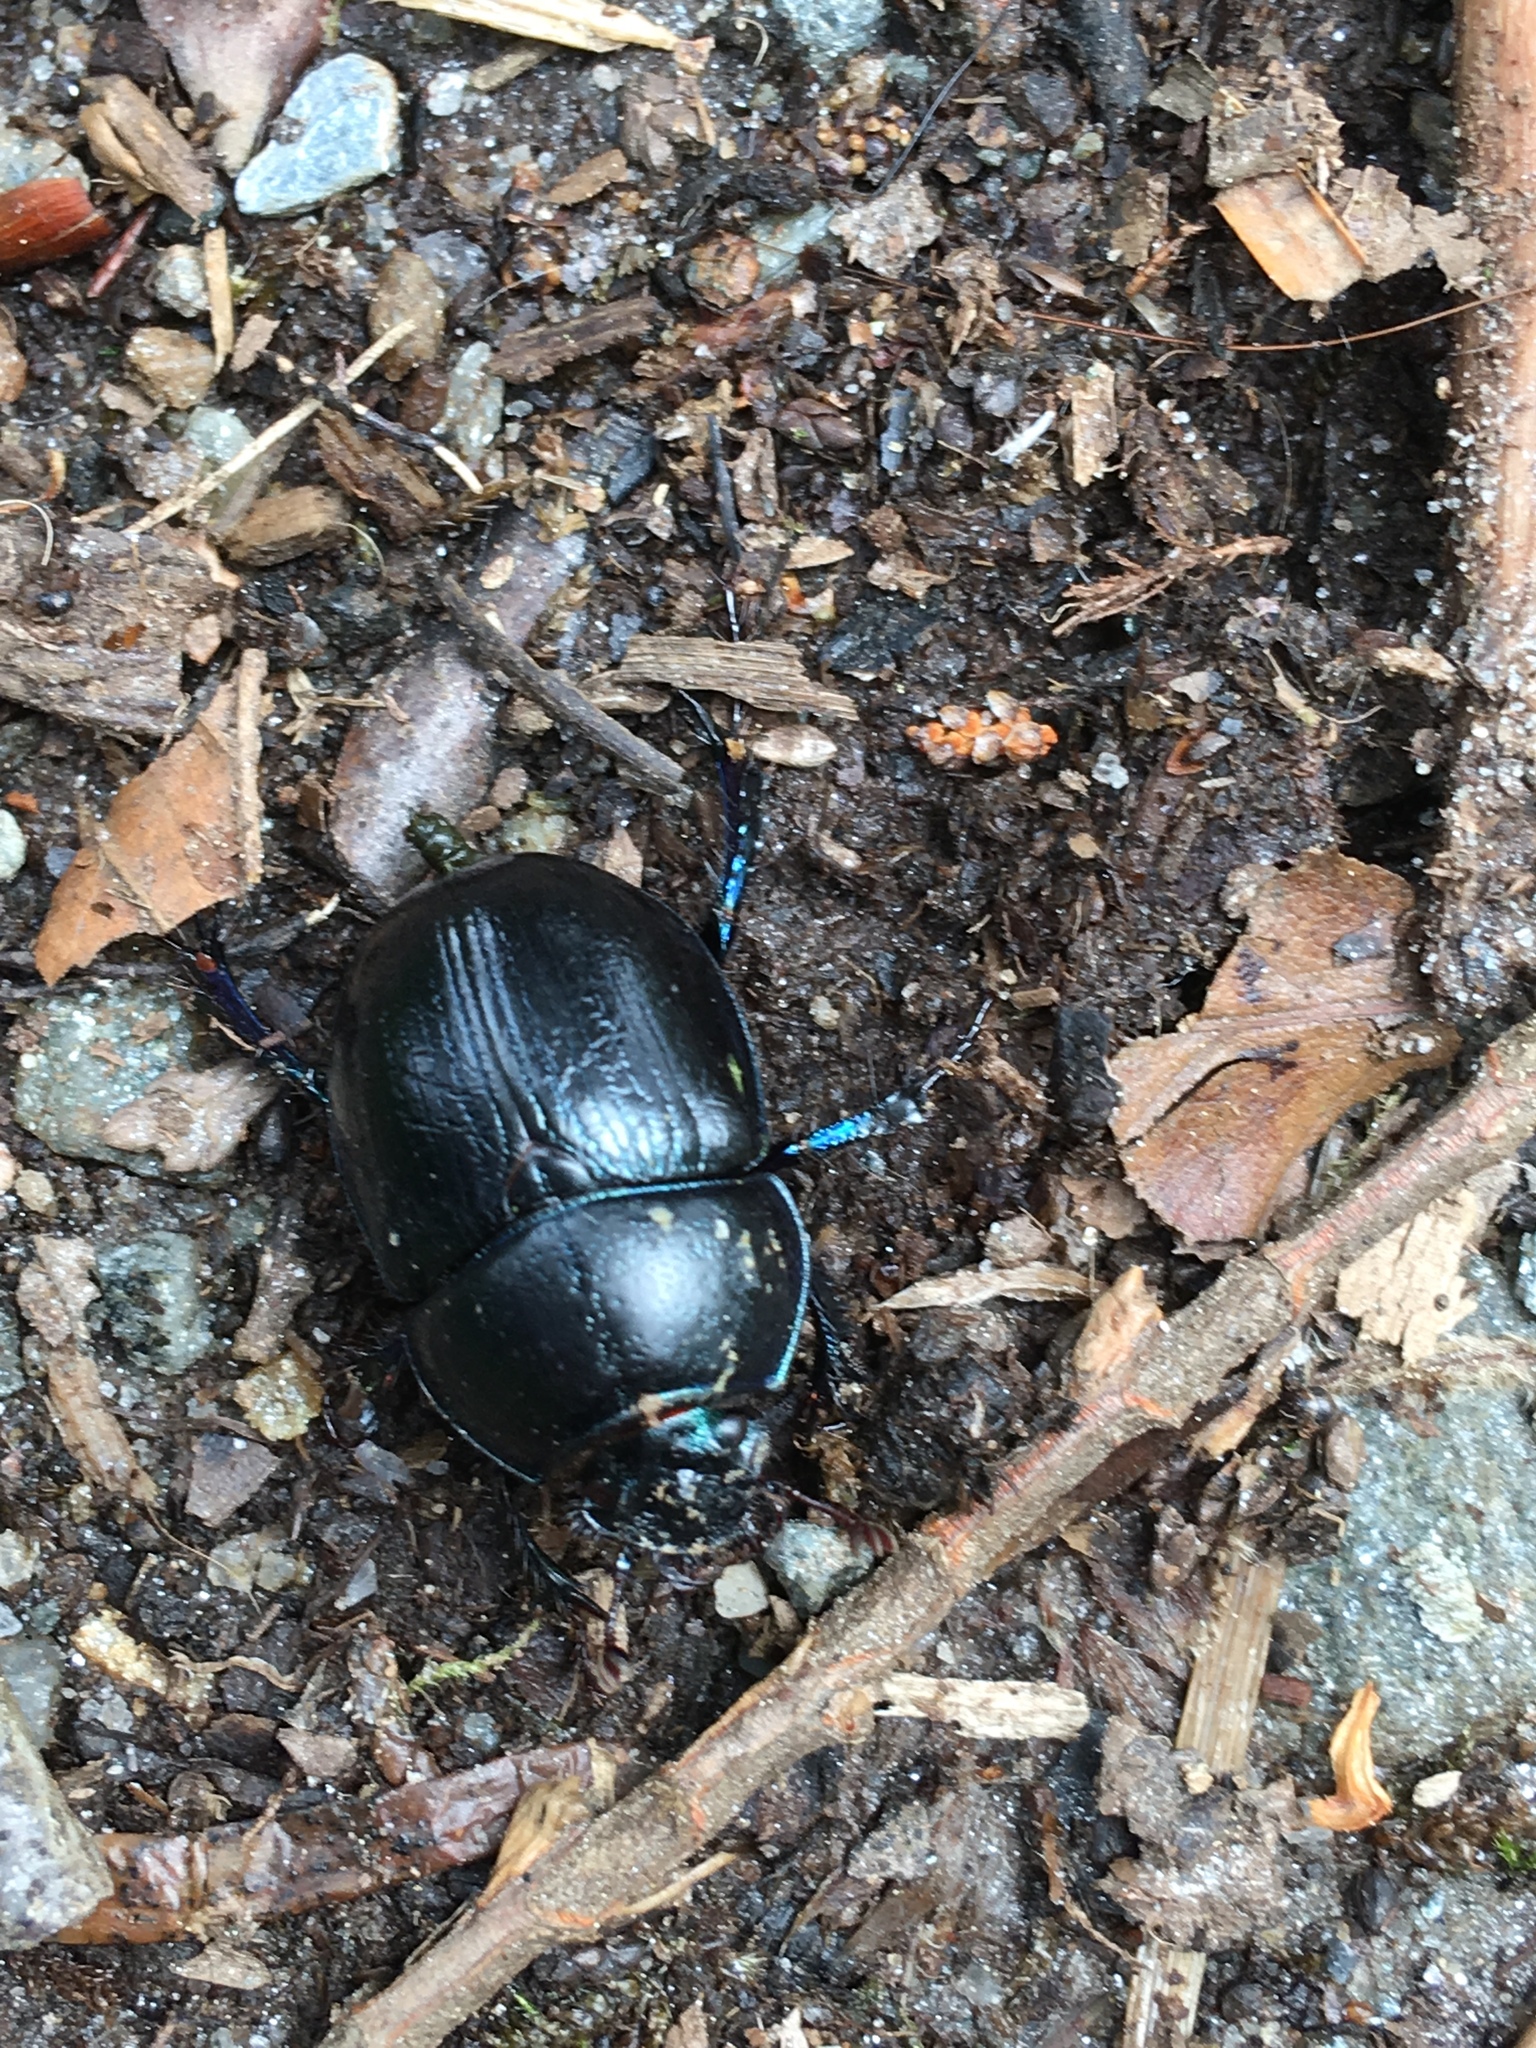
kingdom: Animalia
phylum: Arthropoda
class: Insecta
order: Coleoptera
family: Geotrupidae
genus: Anoplotrupes
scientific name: Anoplotrupes stercorosus
